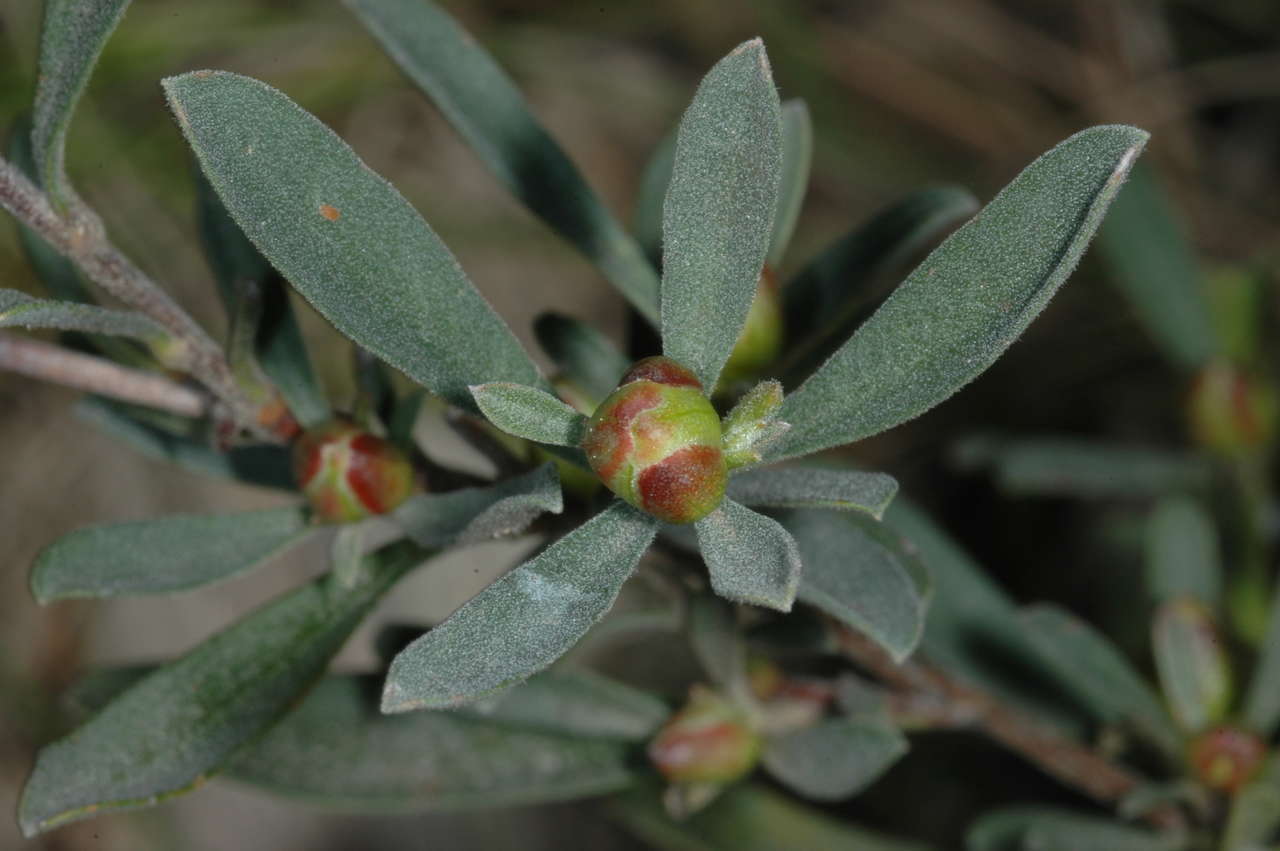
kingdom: Plantae
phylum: Tracheophyta
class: Magnoliopsida
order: Dilleniales
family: Dilleniaceae
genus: Hibbertia
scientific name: Hibbertia obtusifolia
